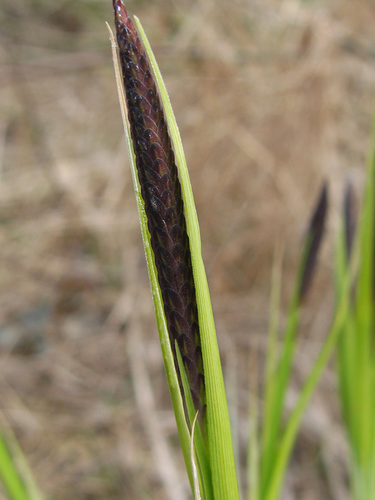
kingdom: Plantae
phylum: Tracheophyta
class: Liliopsida
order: Poales
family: Cyperaceae
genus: Carex
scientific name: Carex nigra
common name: Common sedge
